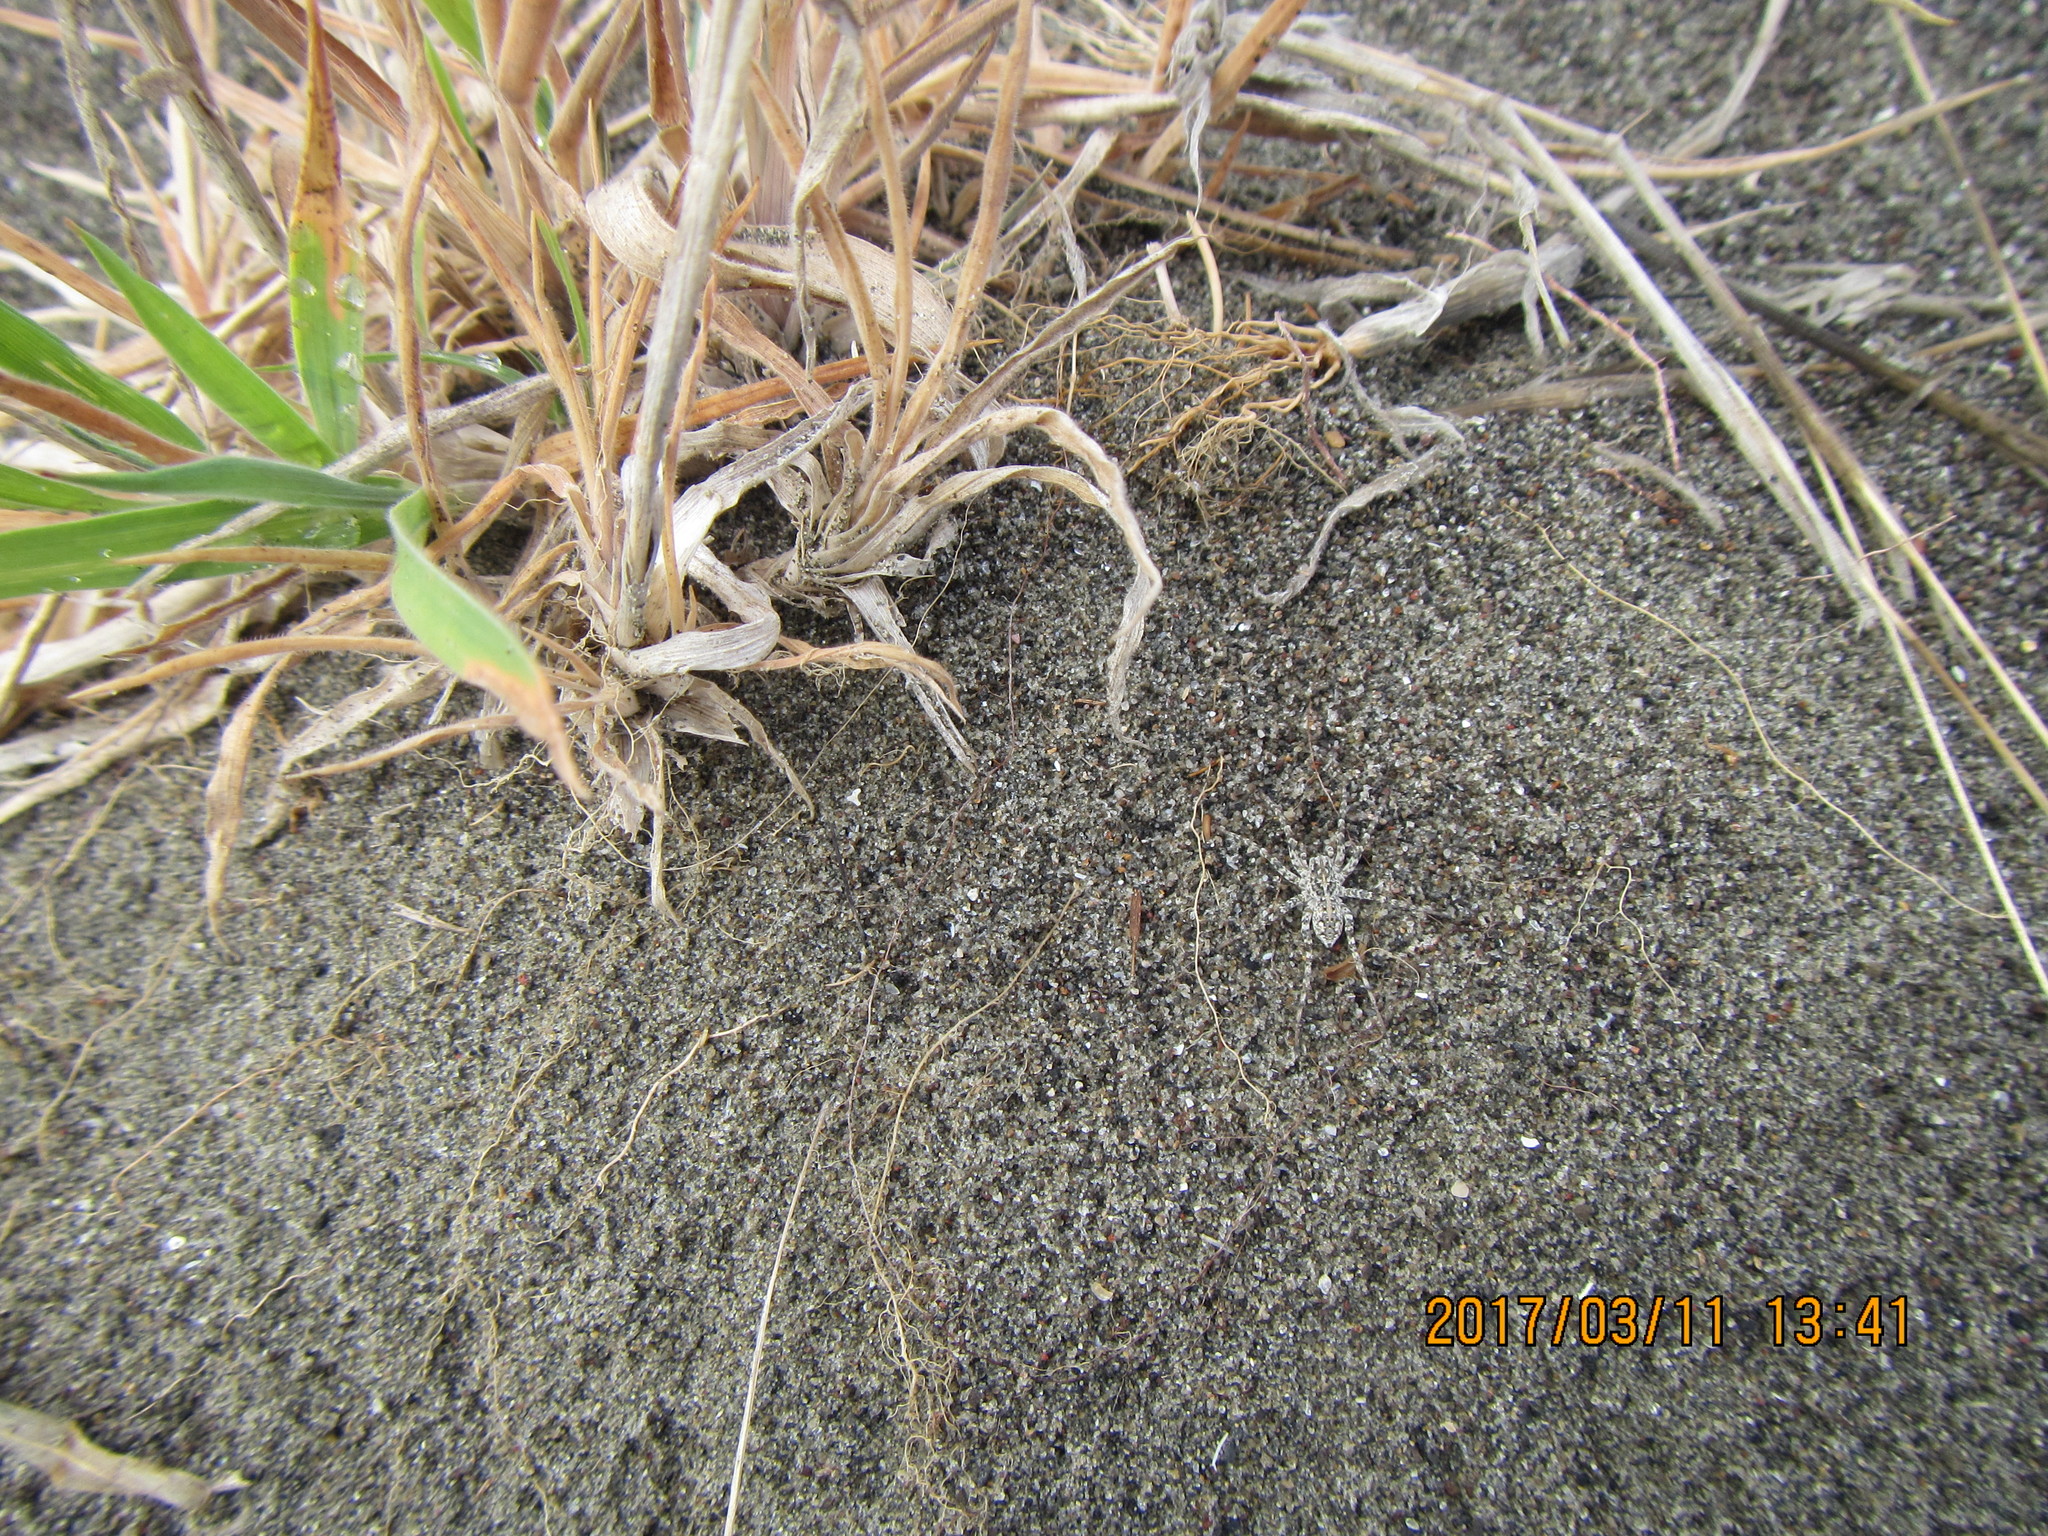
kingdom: Animalia
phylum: Arthropoda
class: Arachnida
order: Araneae
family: Lycosidae
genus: Anoteropsis
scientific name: Anoteropsis litoralis
